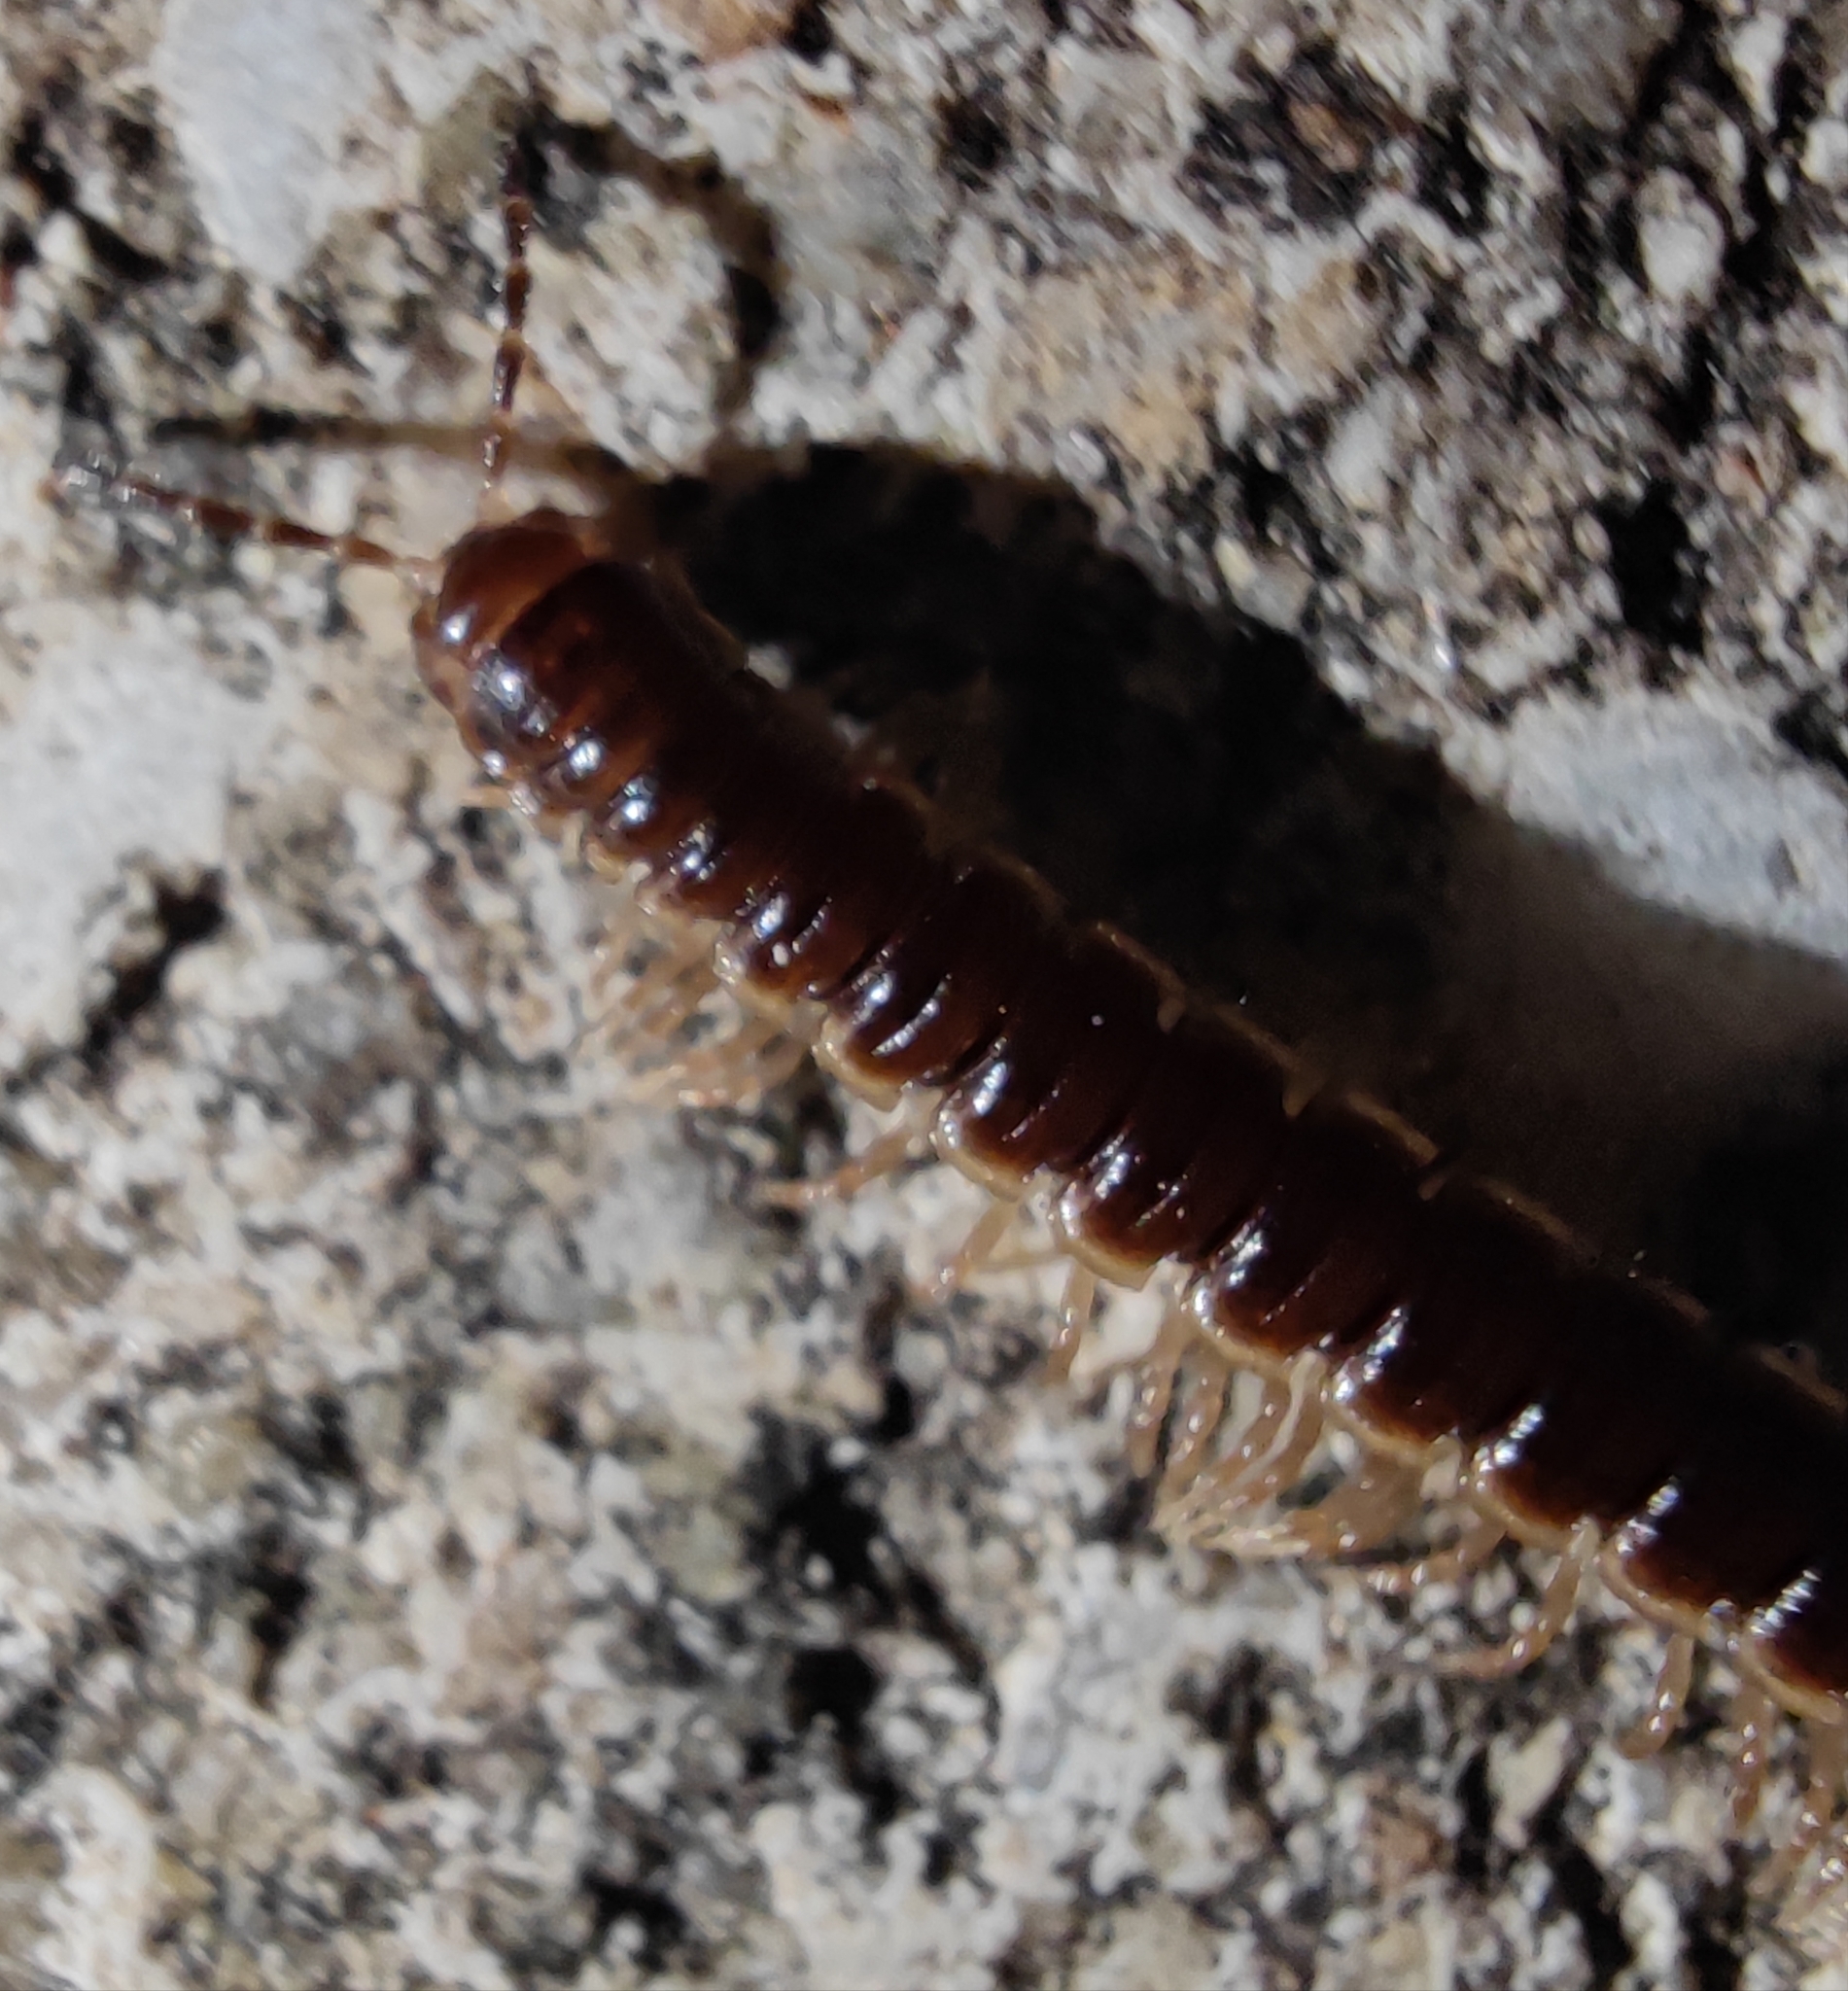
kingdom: Animalia
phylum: Arthropoda
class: Diplopoda
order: Polydesmida
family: Paradoxosomatidae
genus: Oxidus
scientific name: Oxidus gracilis
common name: Greenhouse millipede
